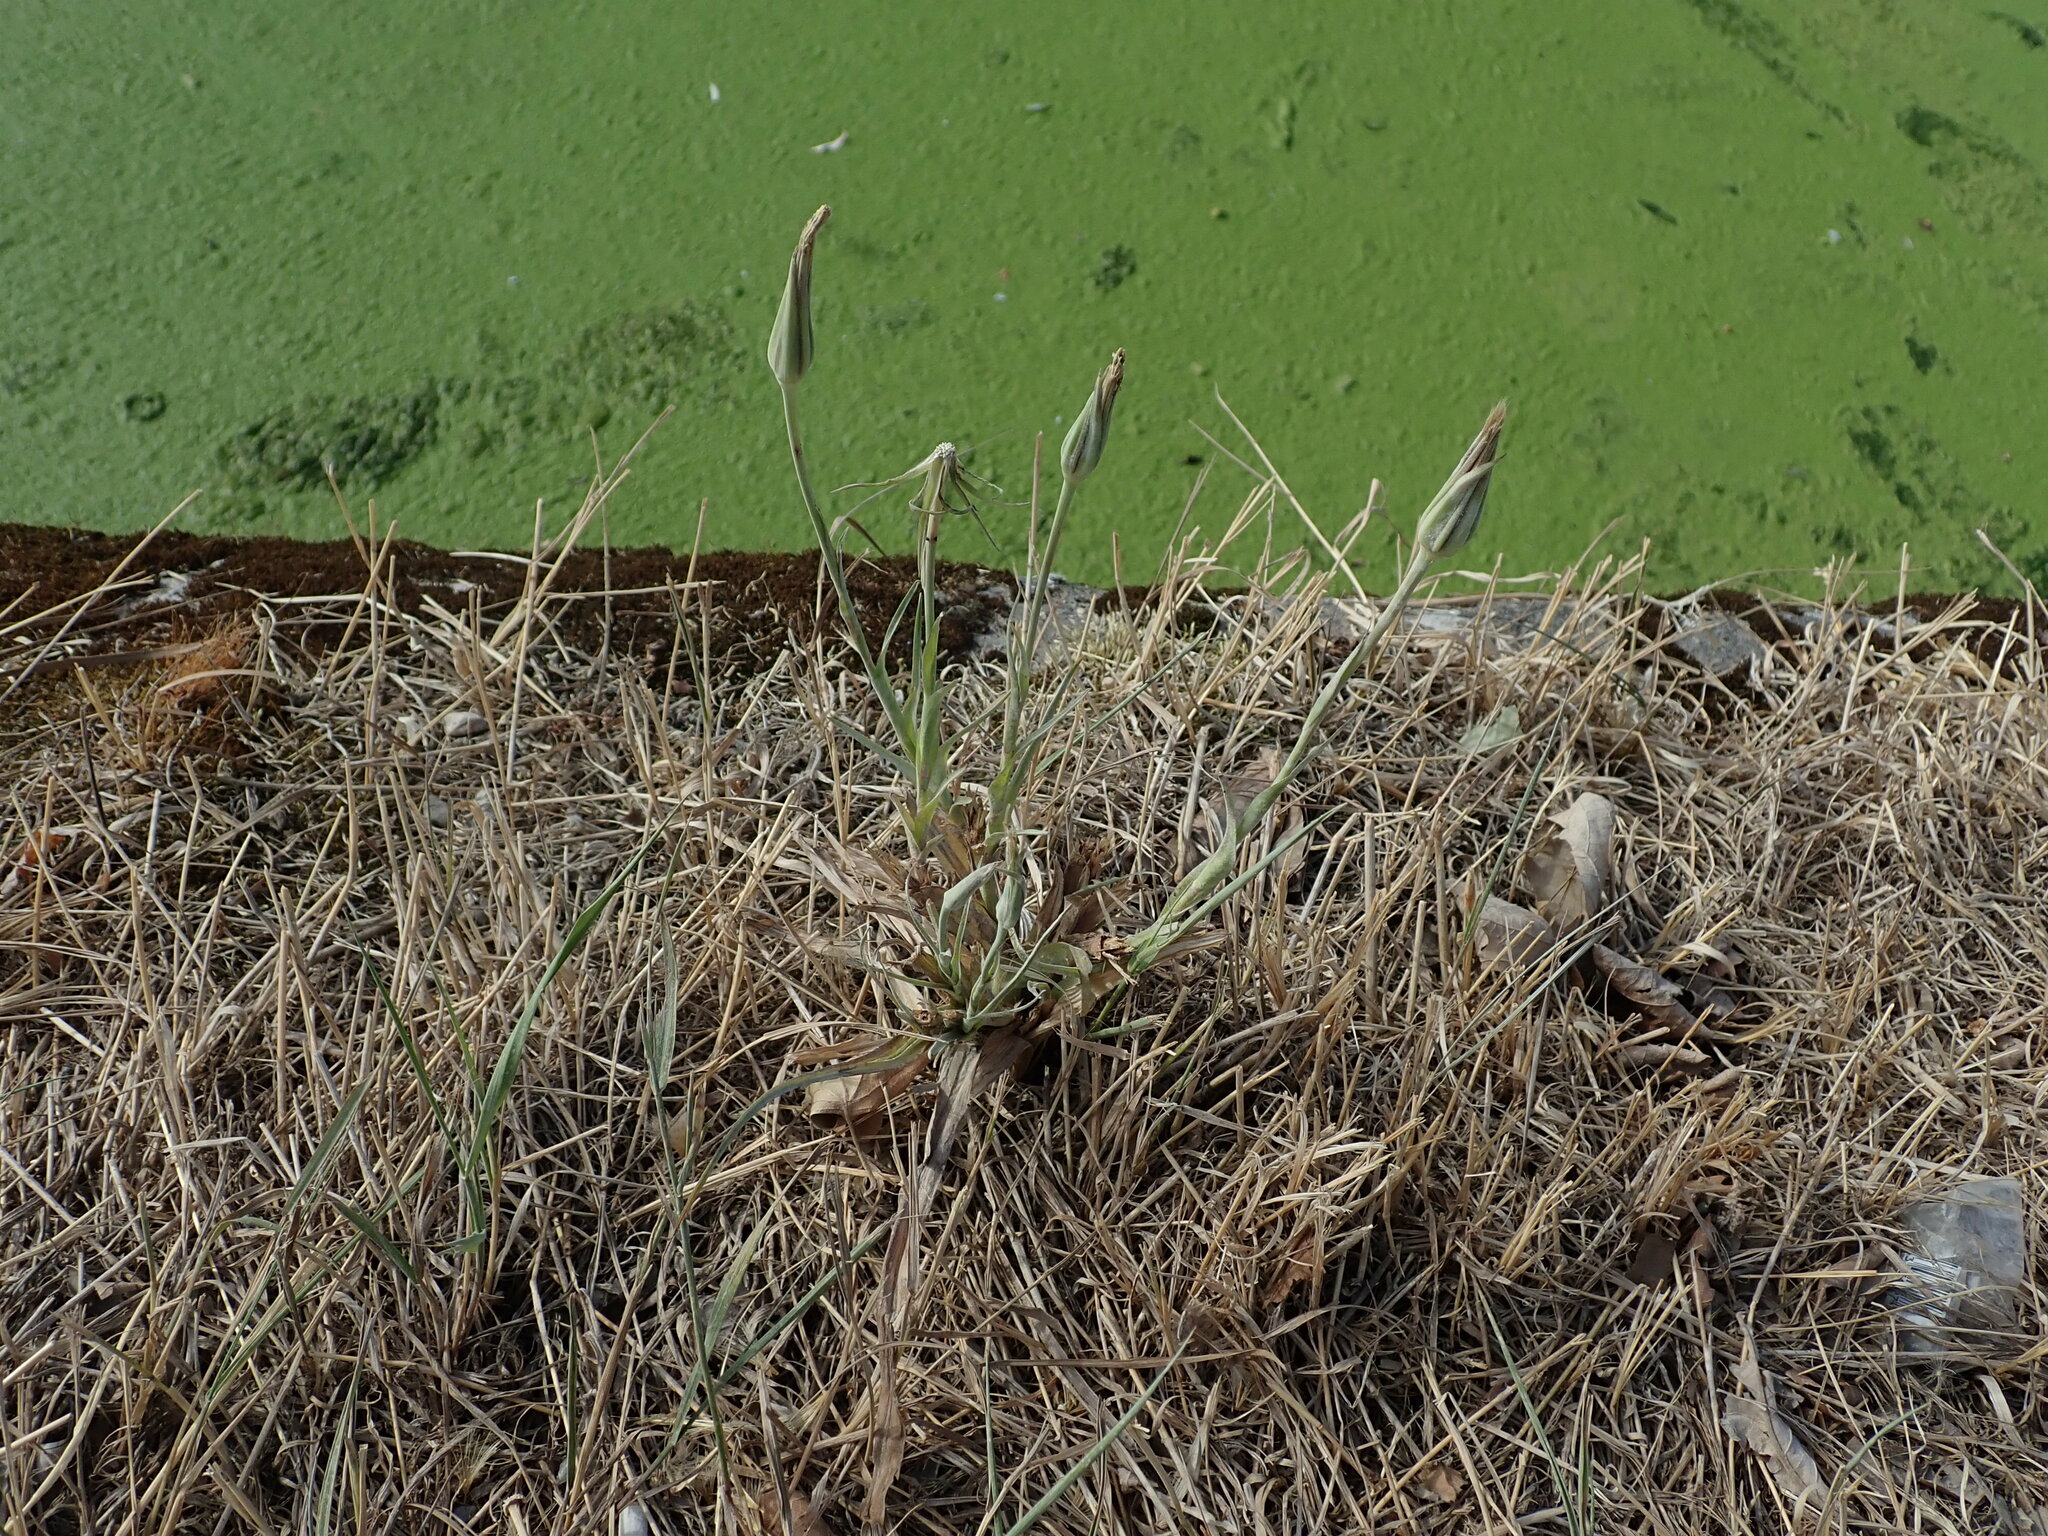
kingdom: Plantae
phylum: Tracheophyta
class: Magnoliopsida
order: Asterales
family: Asteraceae
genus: Tragopogon
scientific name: Tragopogon pratensis
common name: Goat's-beard
